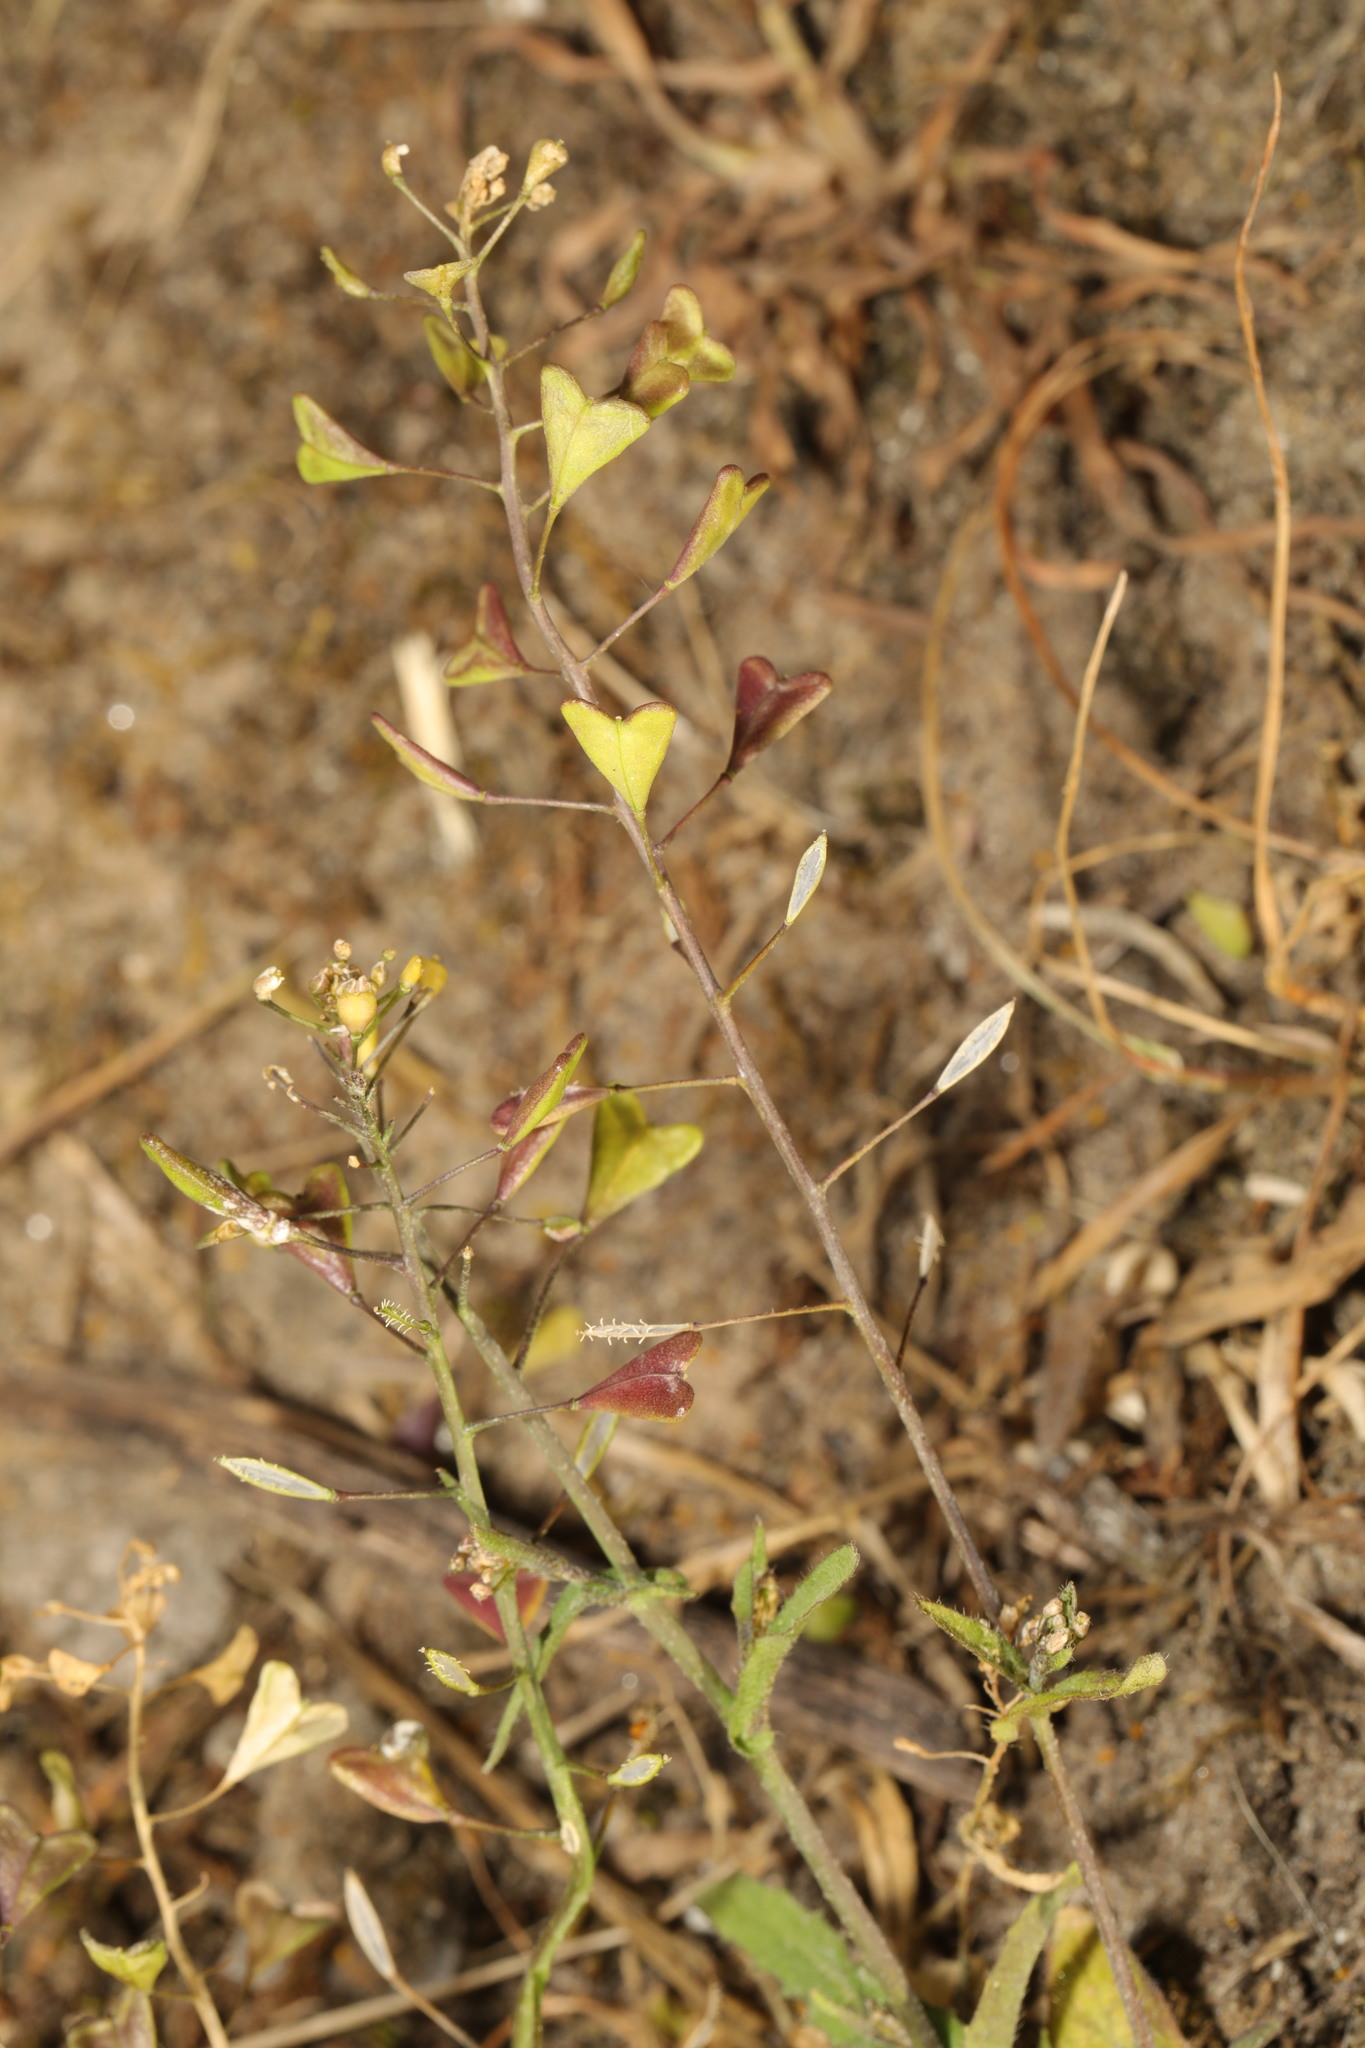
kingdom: Plantae
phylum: Tracheophyta
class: Magnoliopsida
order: Brassicales
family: Brassicaceae
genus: Capsella
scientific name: Capsella bursa-pastoris
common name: Shepherd's purse
